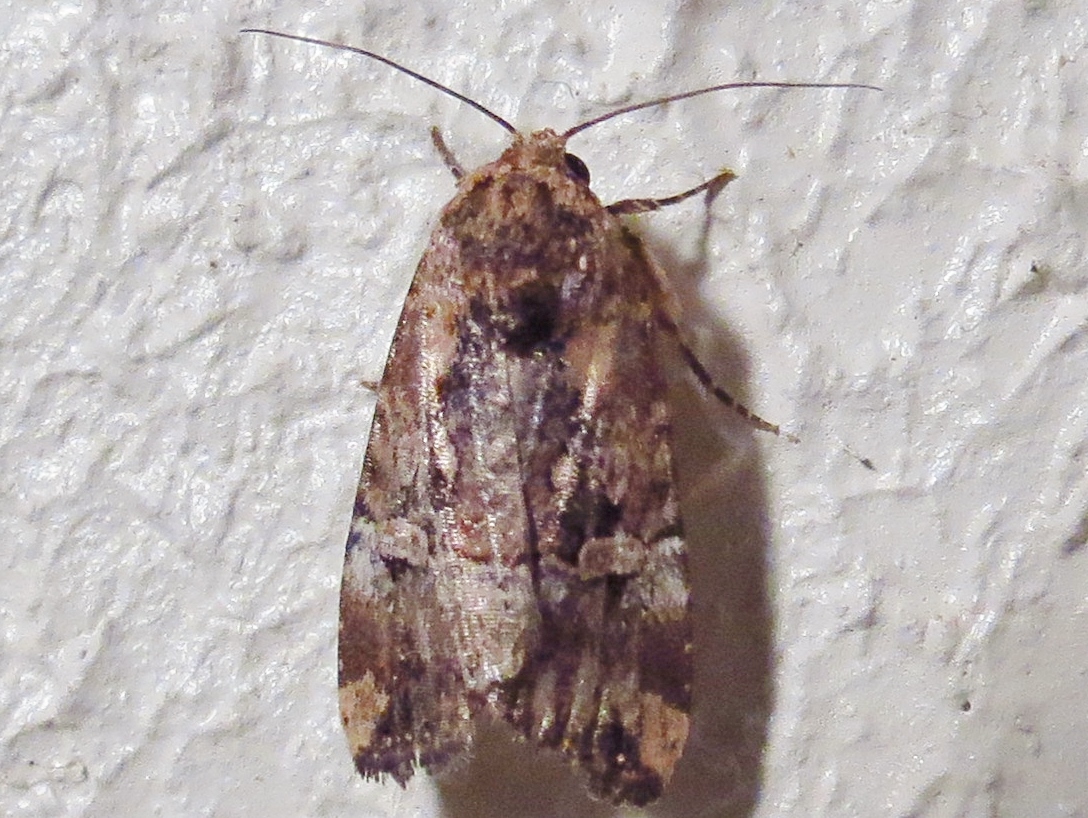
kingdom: Animalia
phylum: Arthropoda
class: Insecta
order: Lepidoptera
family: Noctuidae
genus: Elaphria
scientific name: Elaphria chalcedonia
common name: Chalcedony midget
